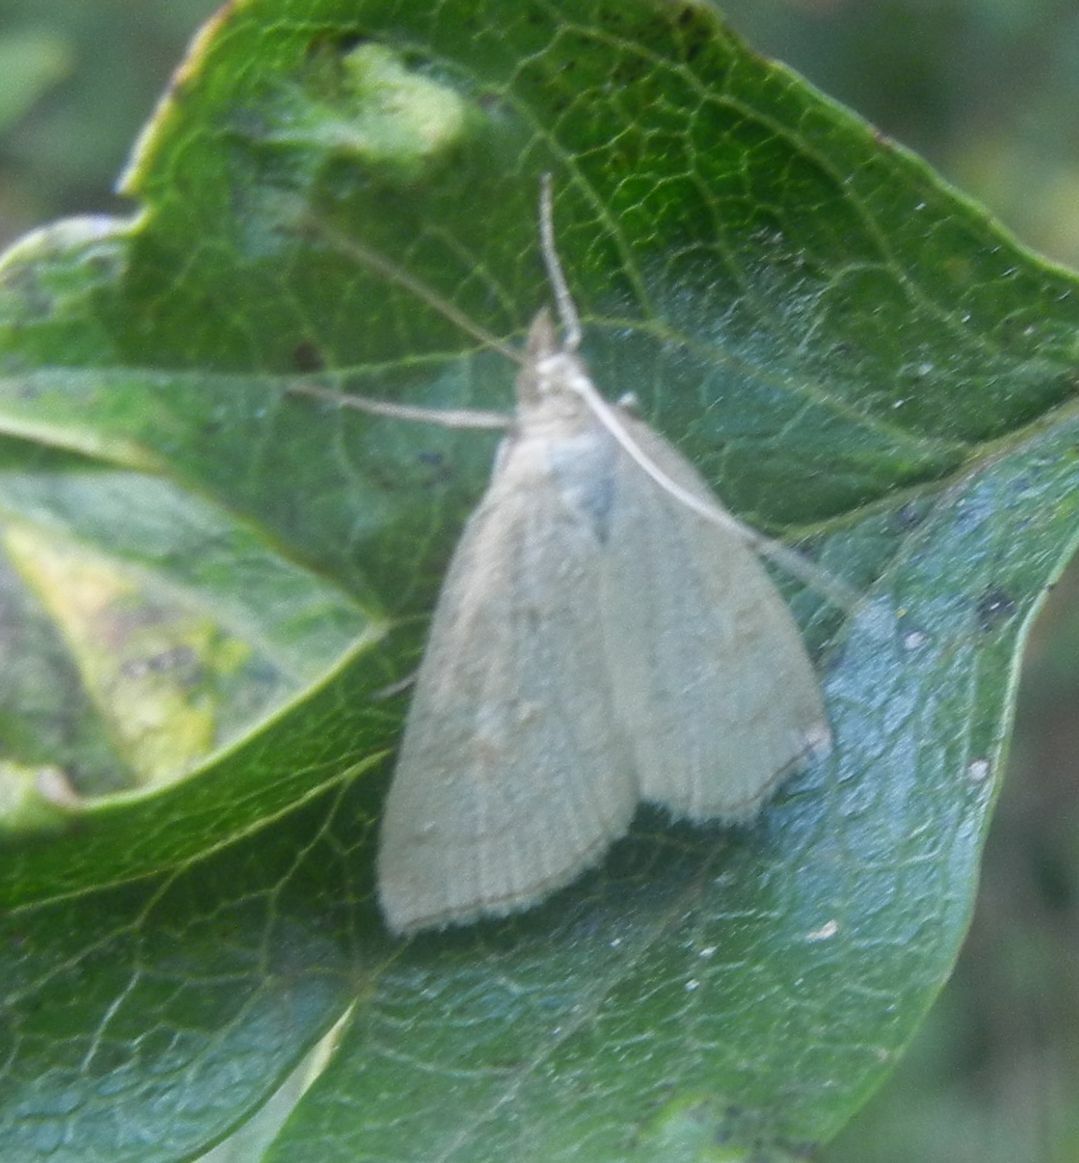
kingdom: Animalia
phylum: Arthropoda
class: Insecta
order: Lepidoptera
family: Crambidae
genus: Udea
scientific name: Udea lutealis
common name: Pale straw pearl
